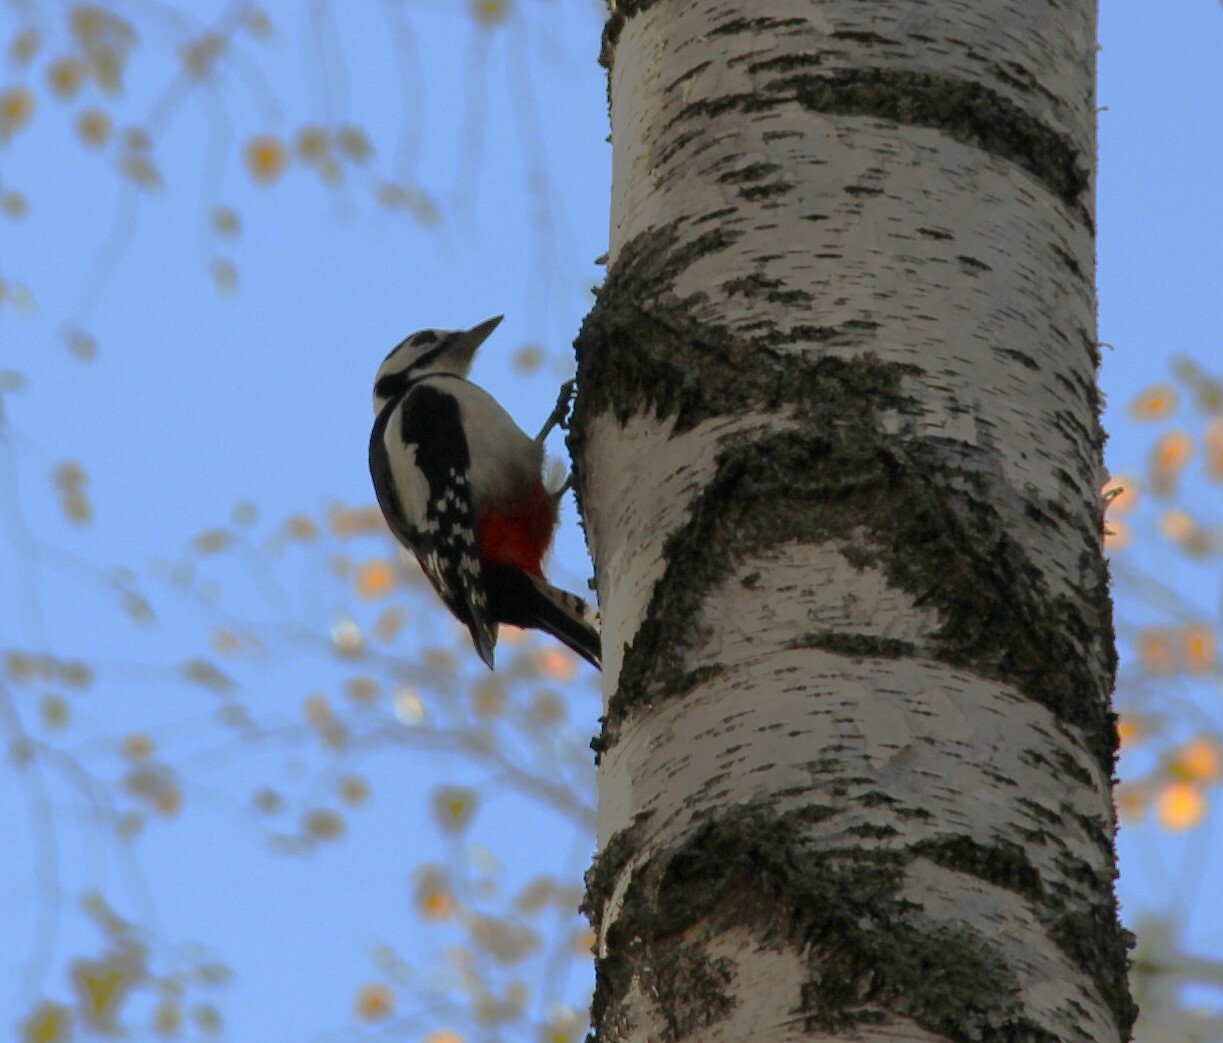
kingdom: Animalia
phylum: Chordata
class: Aves
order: Piciformes
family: Picidae
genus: Dendrocopos
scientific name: Dendrocopos major
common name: Great spotted woodpecker
